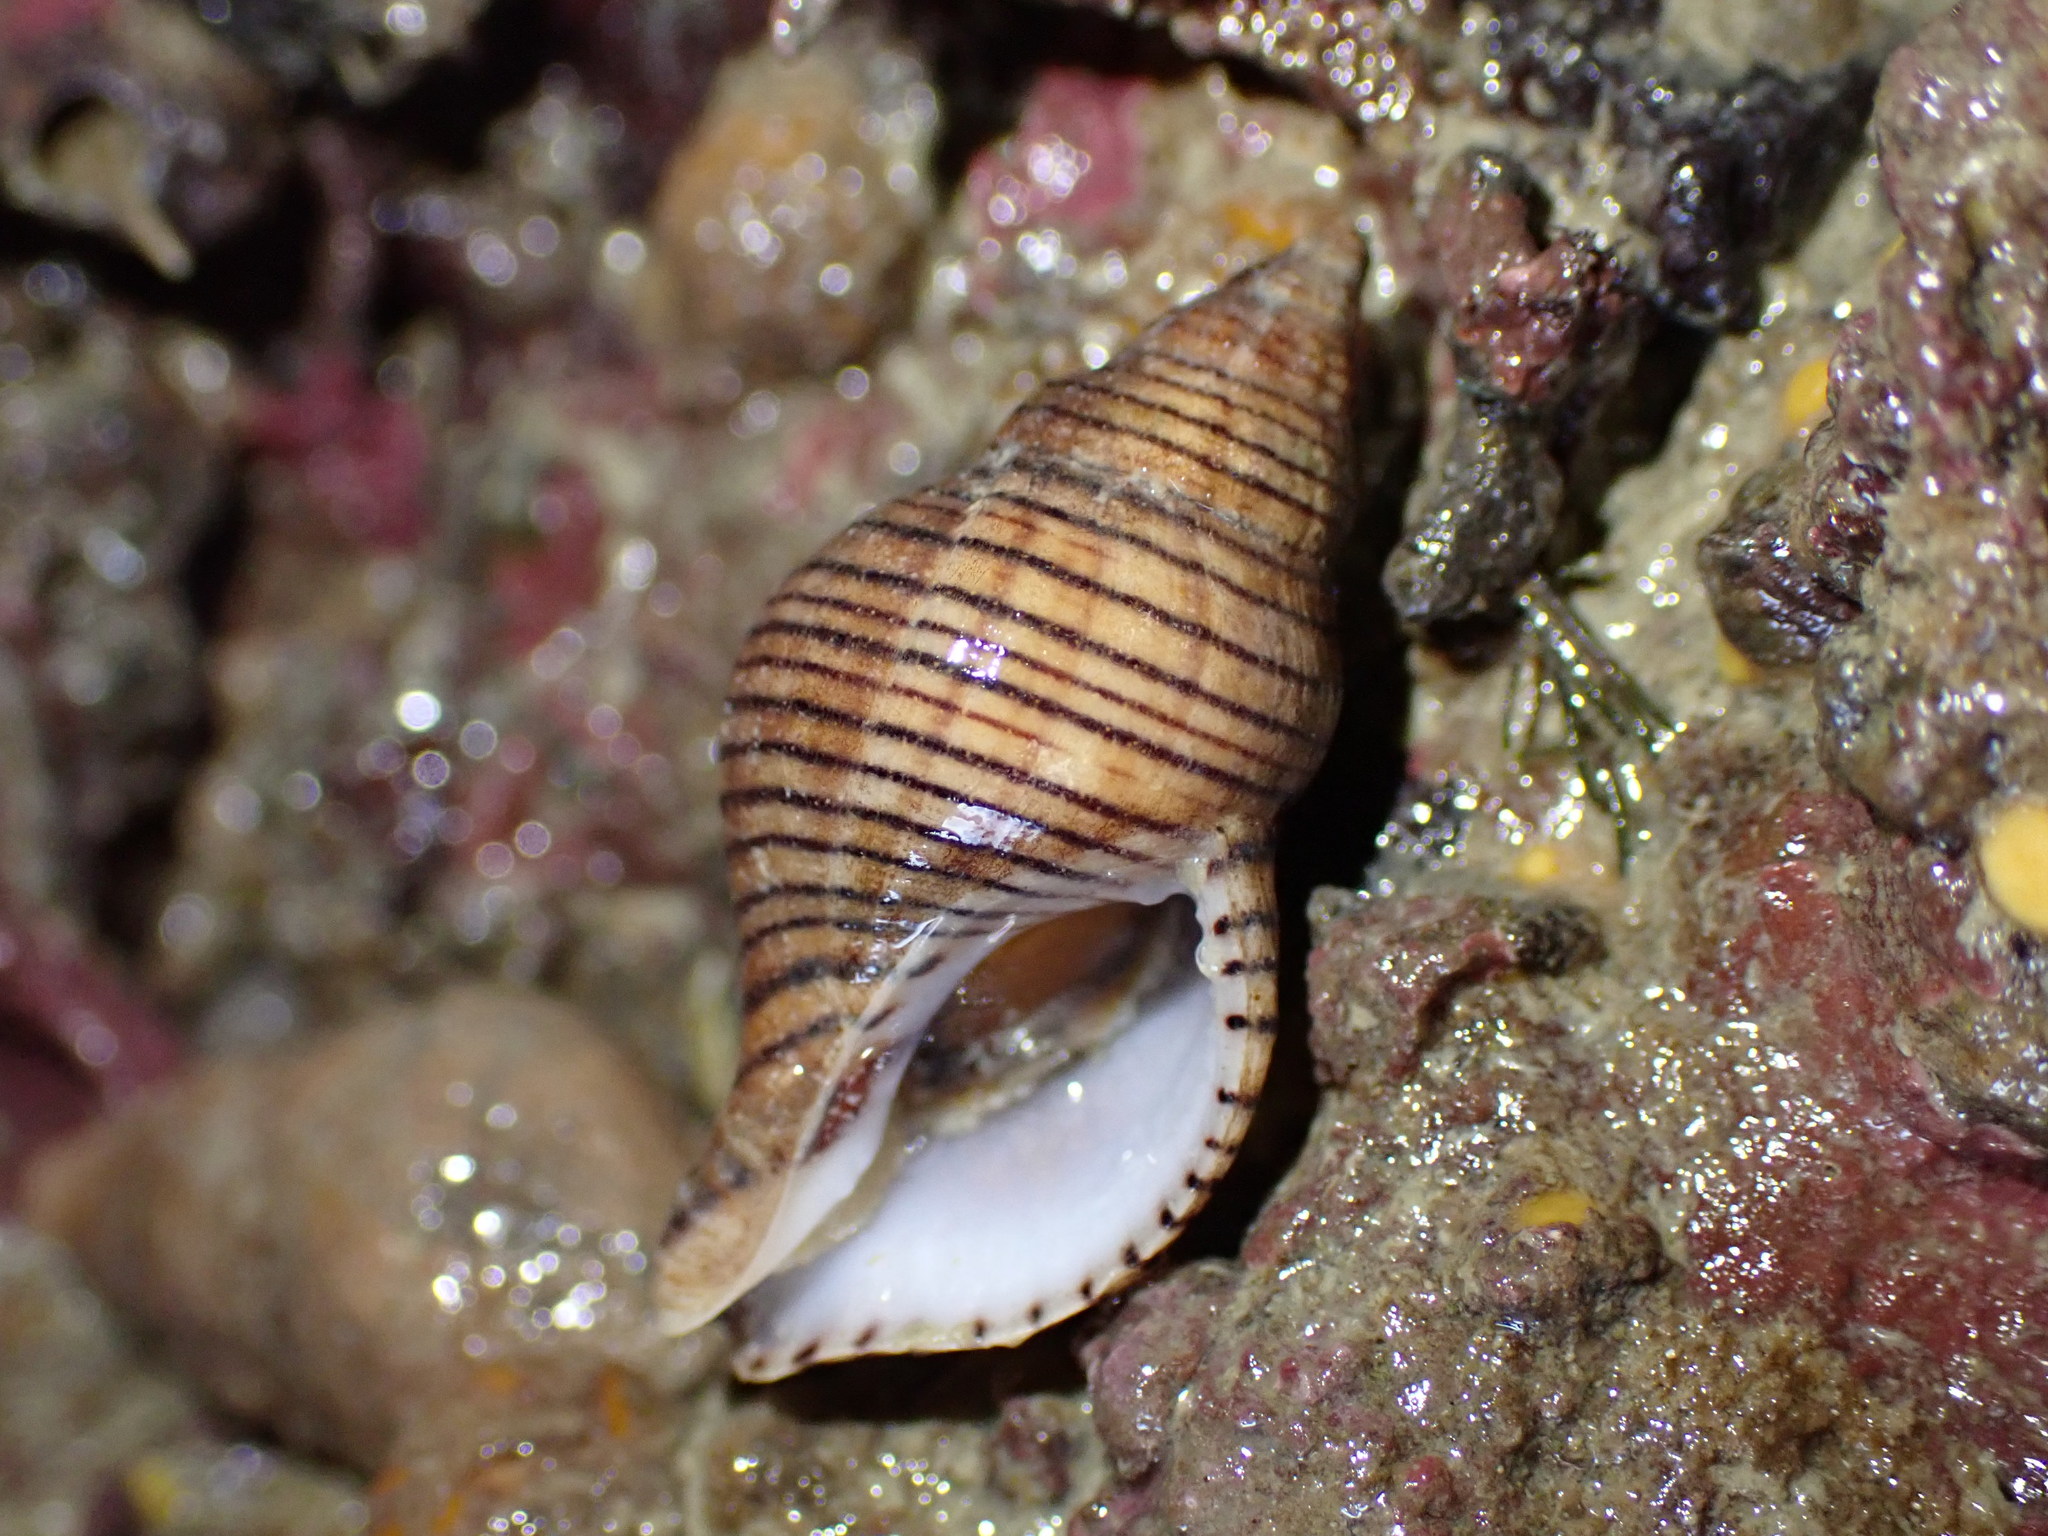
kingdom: Animalia
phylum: Mollusca
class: Gastropoda
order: Neogastropoda
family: Tudiclidae
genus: Buccinulum
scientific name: Buccinulum linea
